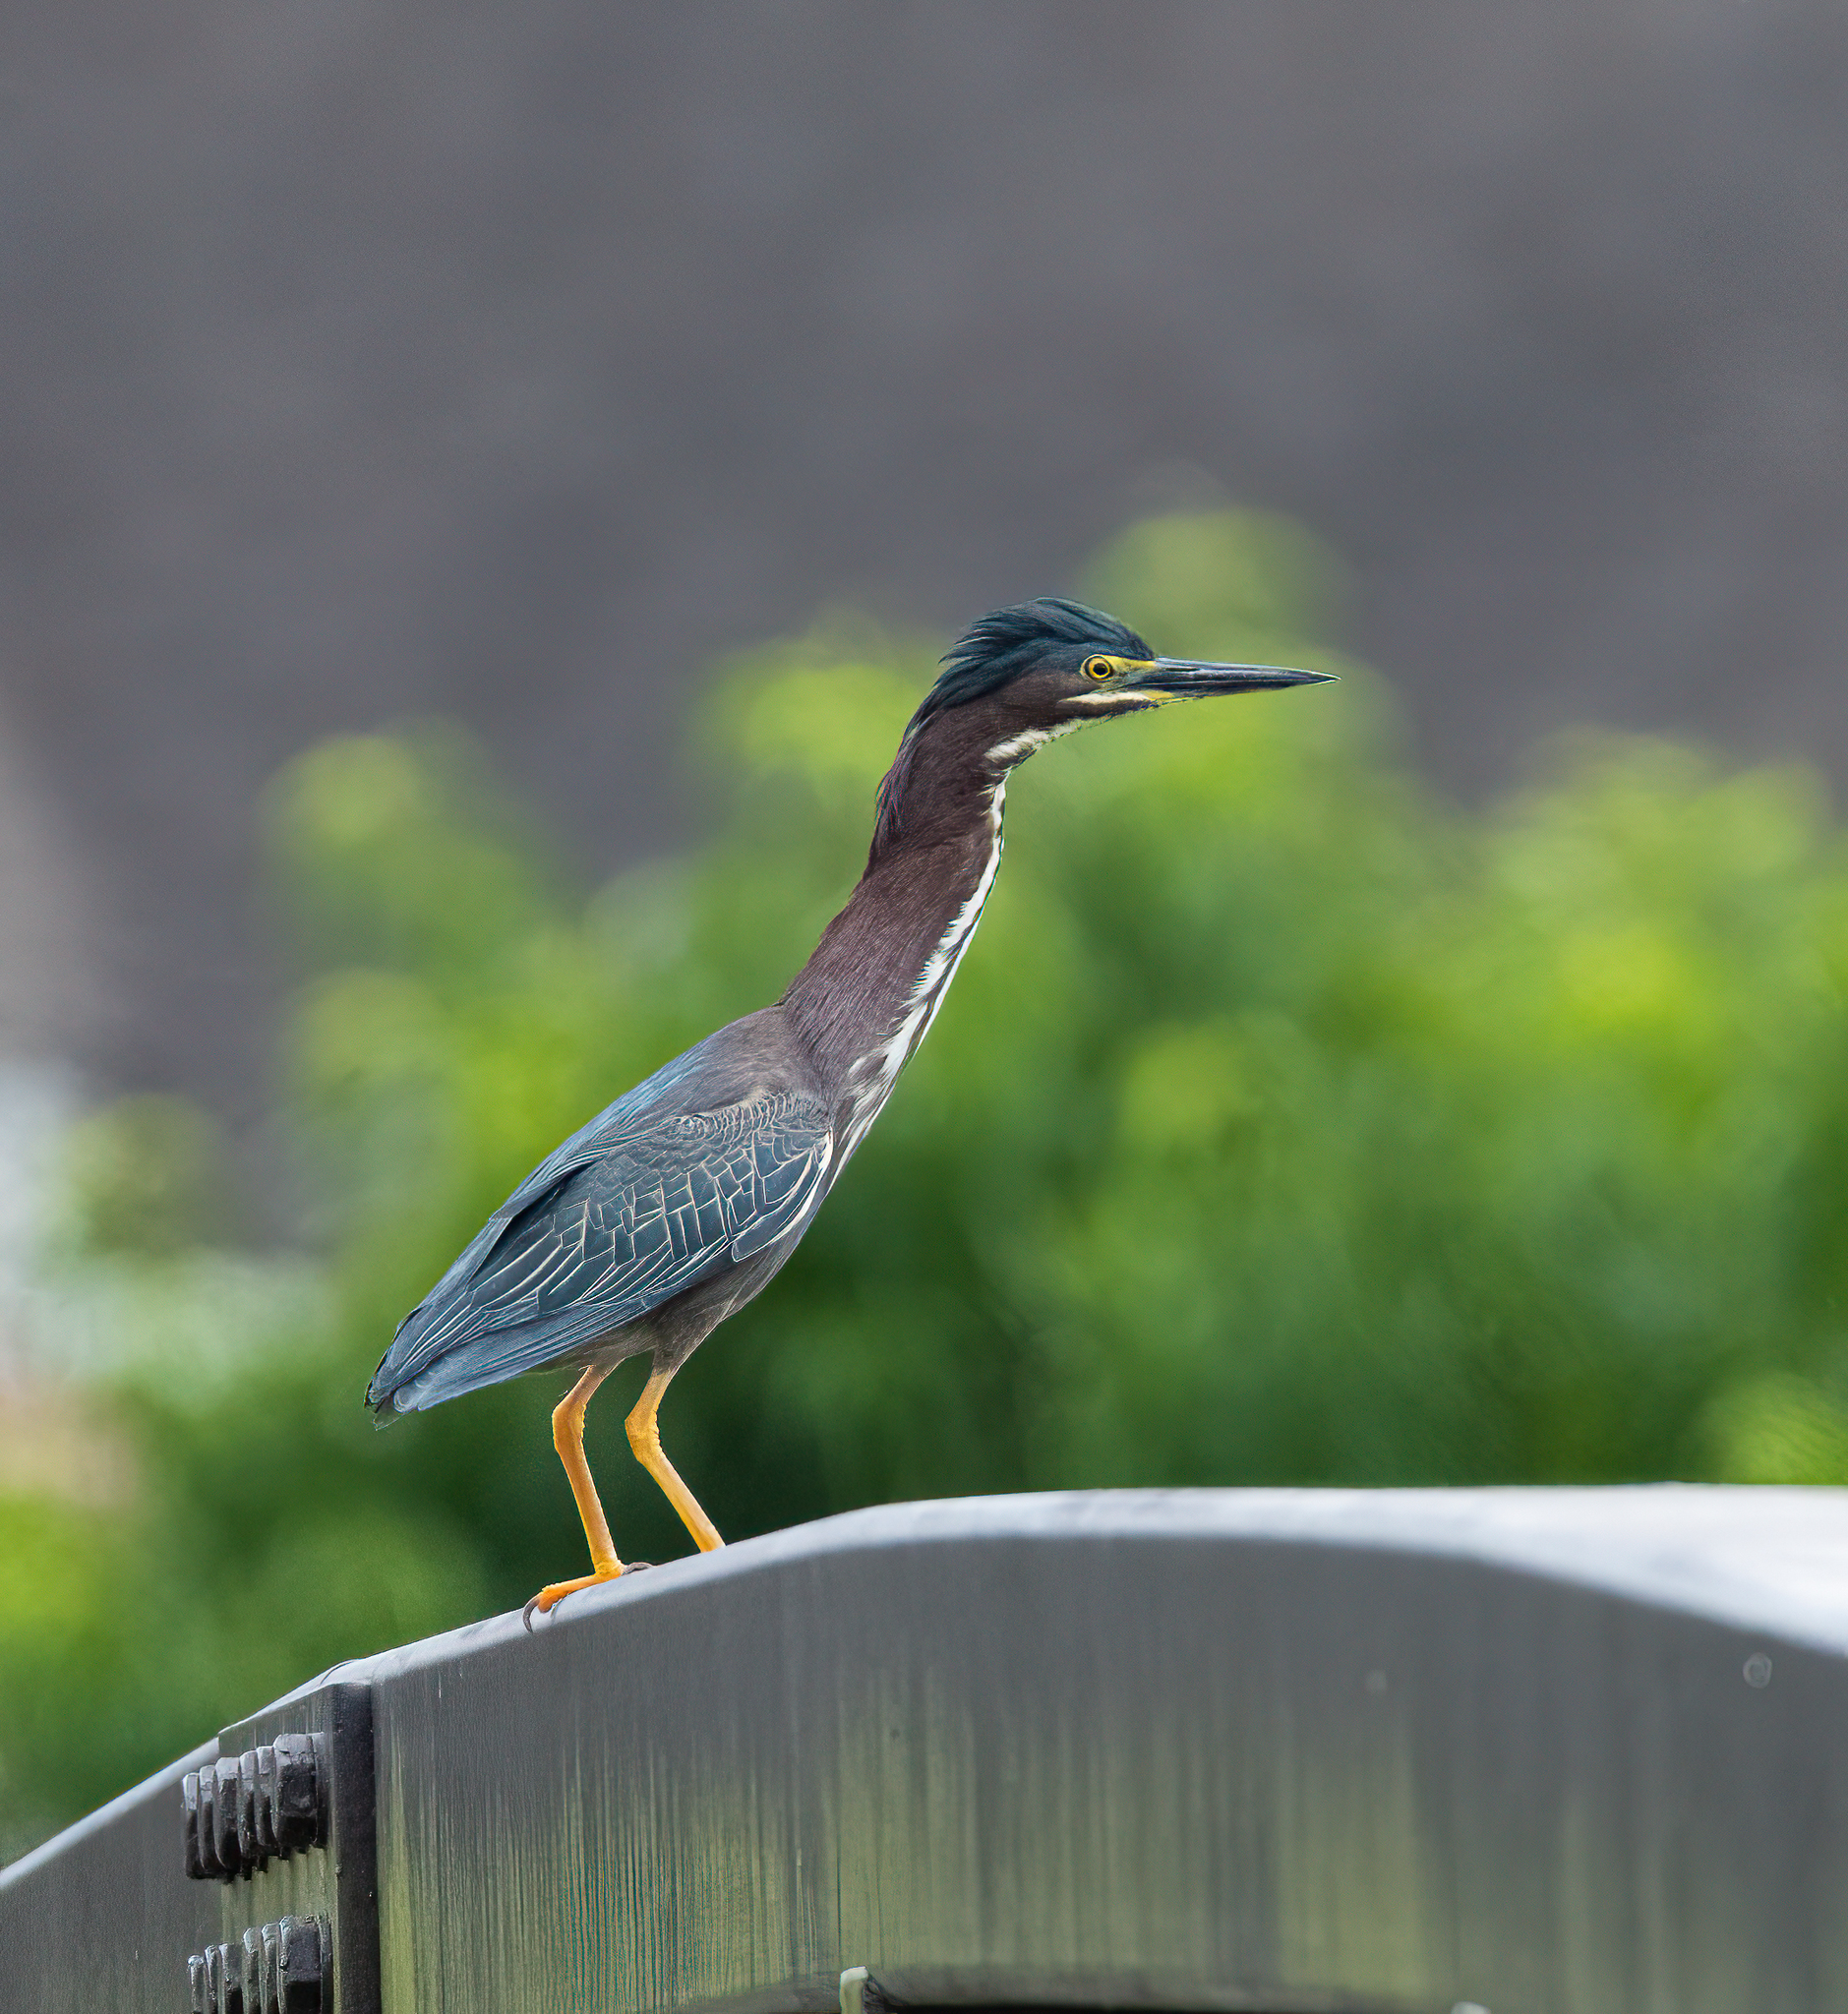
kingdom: Animalia
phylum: Chordata
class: Aves
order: Pelecaniformes
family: Ardeidae
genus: Butorides
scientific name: Butorides virescens
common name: Green heron
